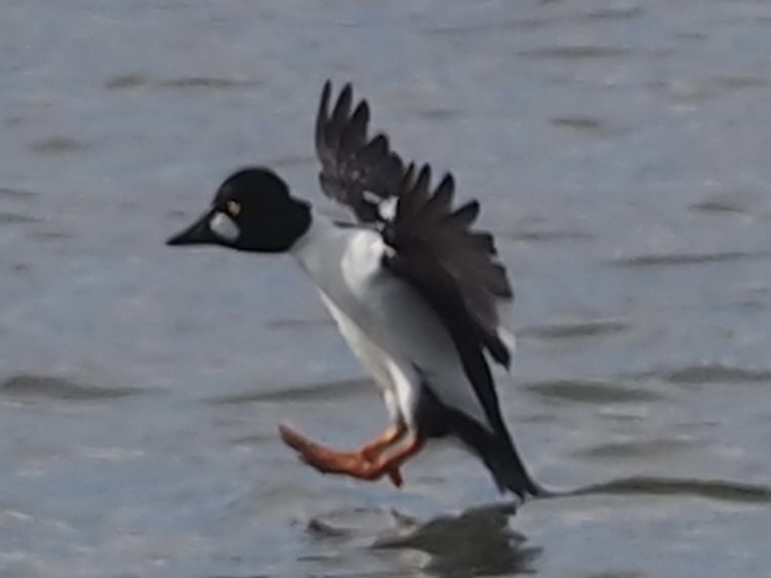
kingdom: Animalia
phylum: Chordata
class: Aves
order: Anseriformes
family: Anatidae
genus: Bucephala
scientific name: Bucephala clangula
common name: Common goldeneye
